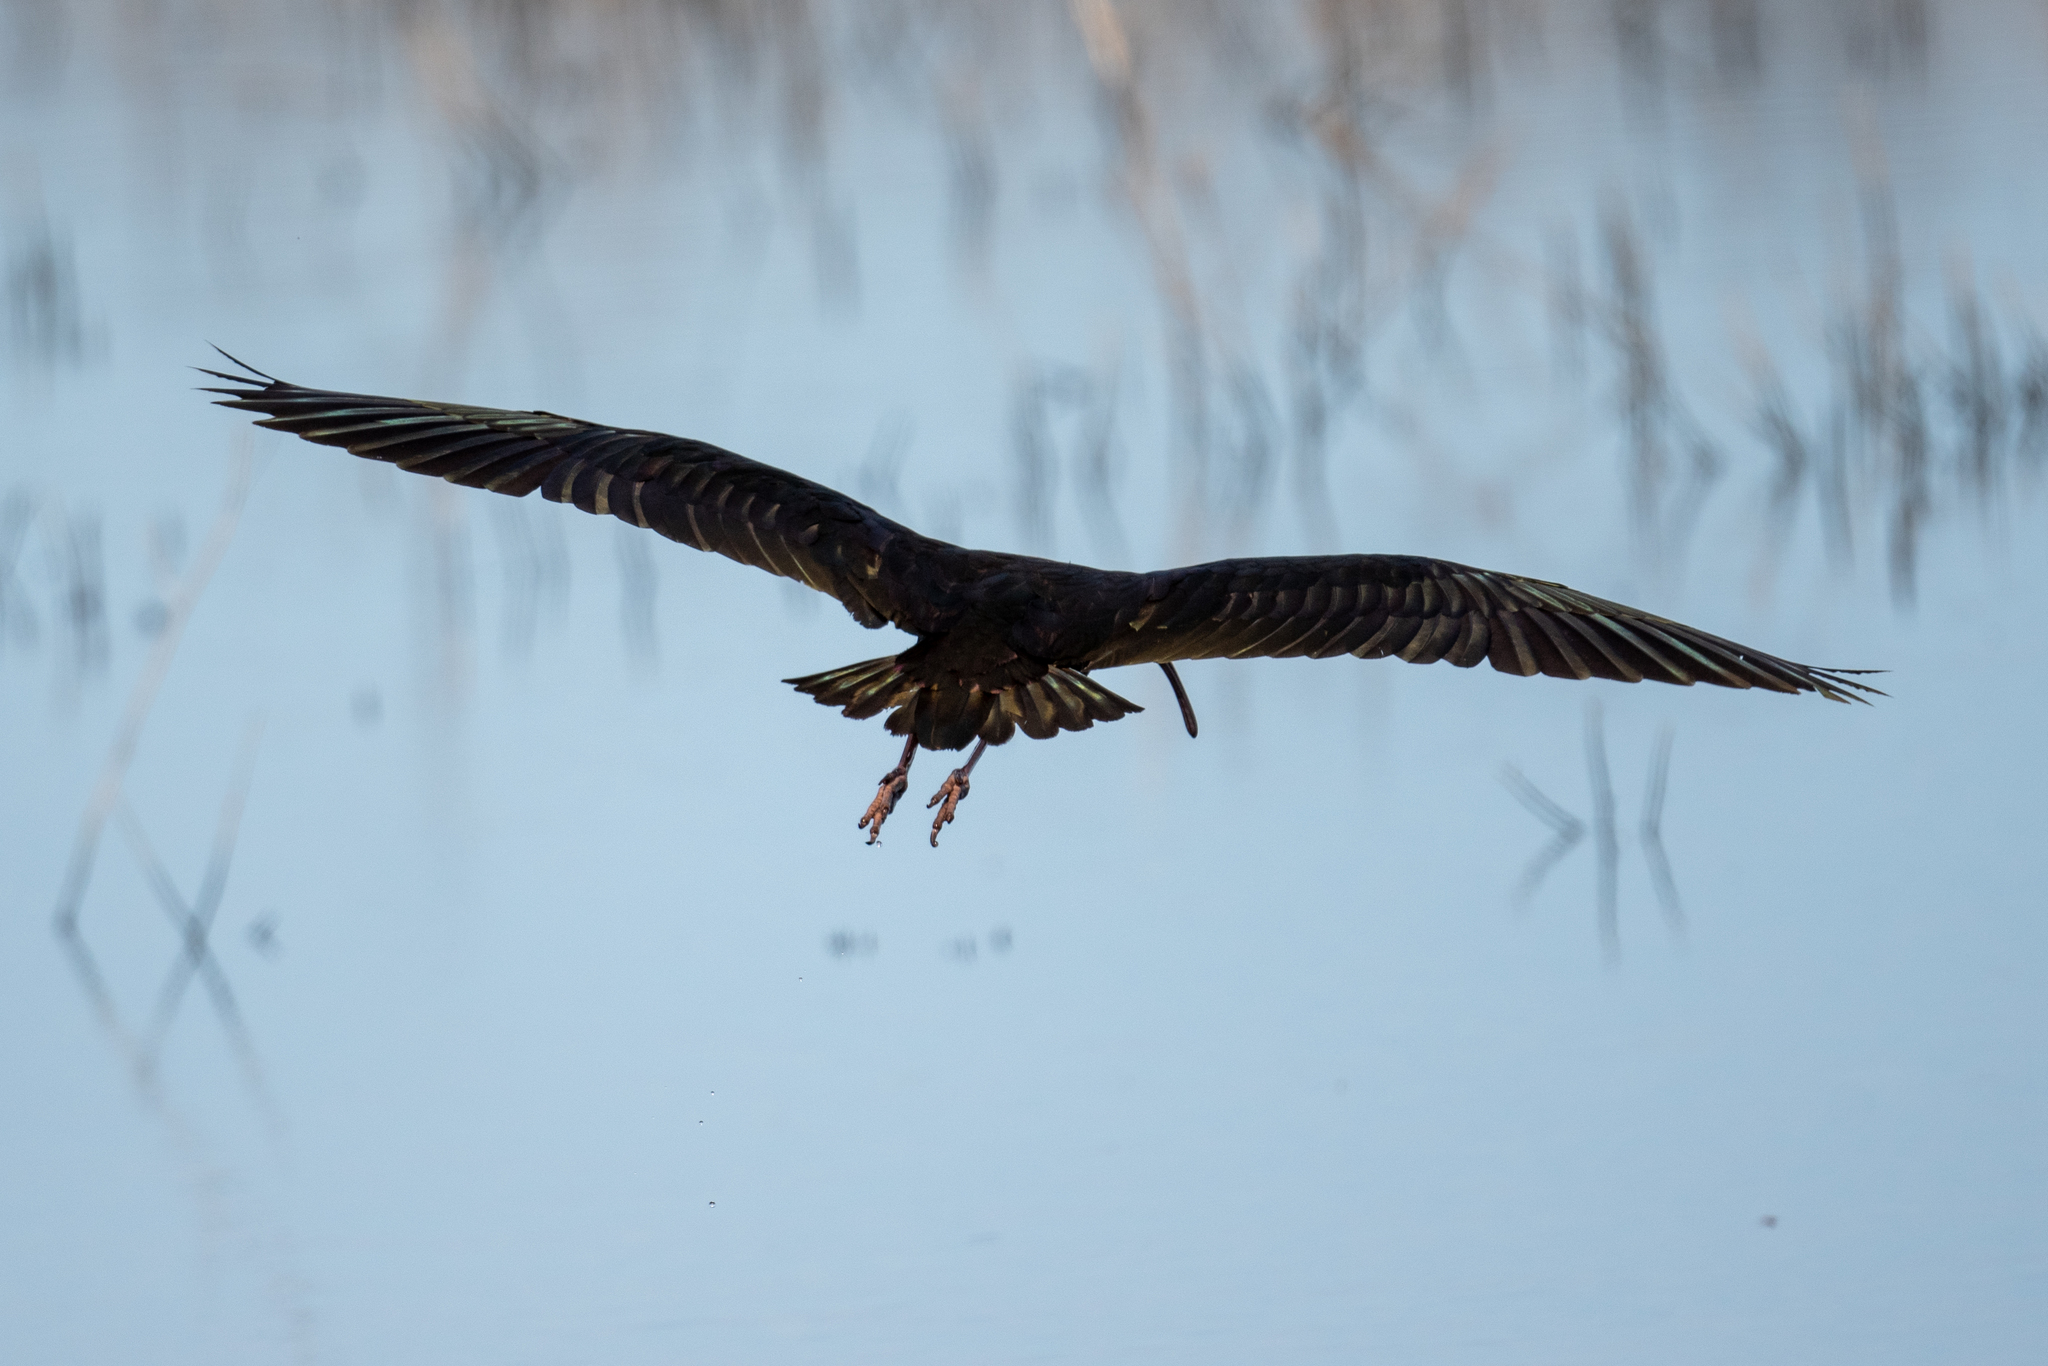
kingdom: Animalia
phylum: Chordata
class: Aves
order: Pelecaniformes
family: Threskiornithidae
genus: Plegadis
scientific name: Plegadis chihi
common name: White-faced ibis
